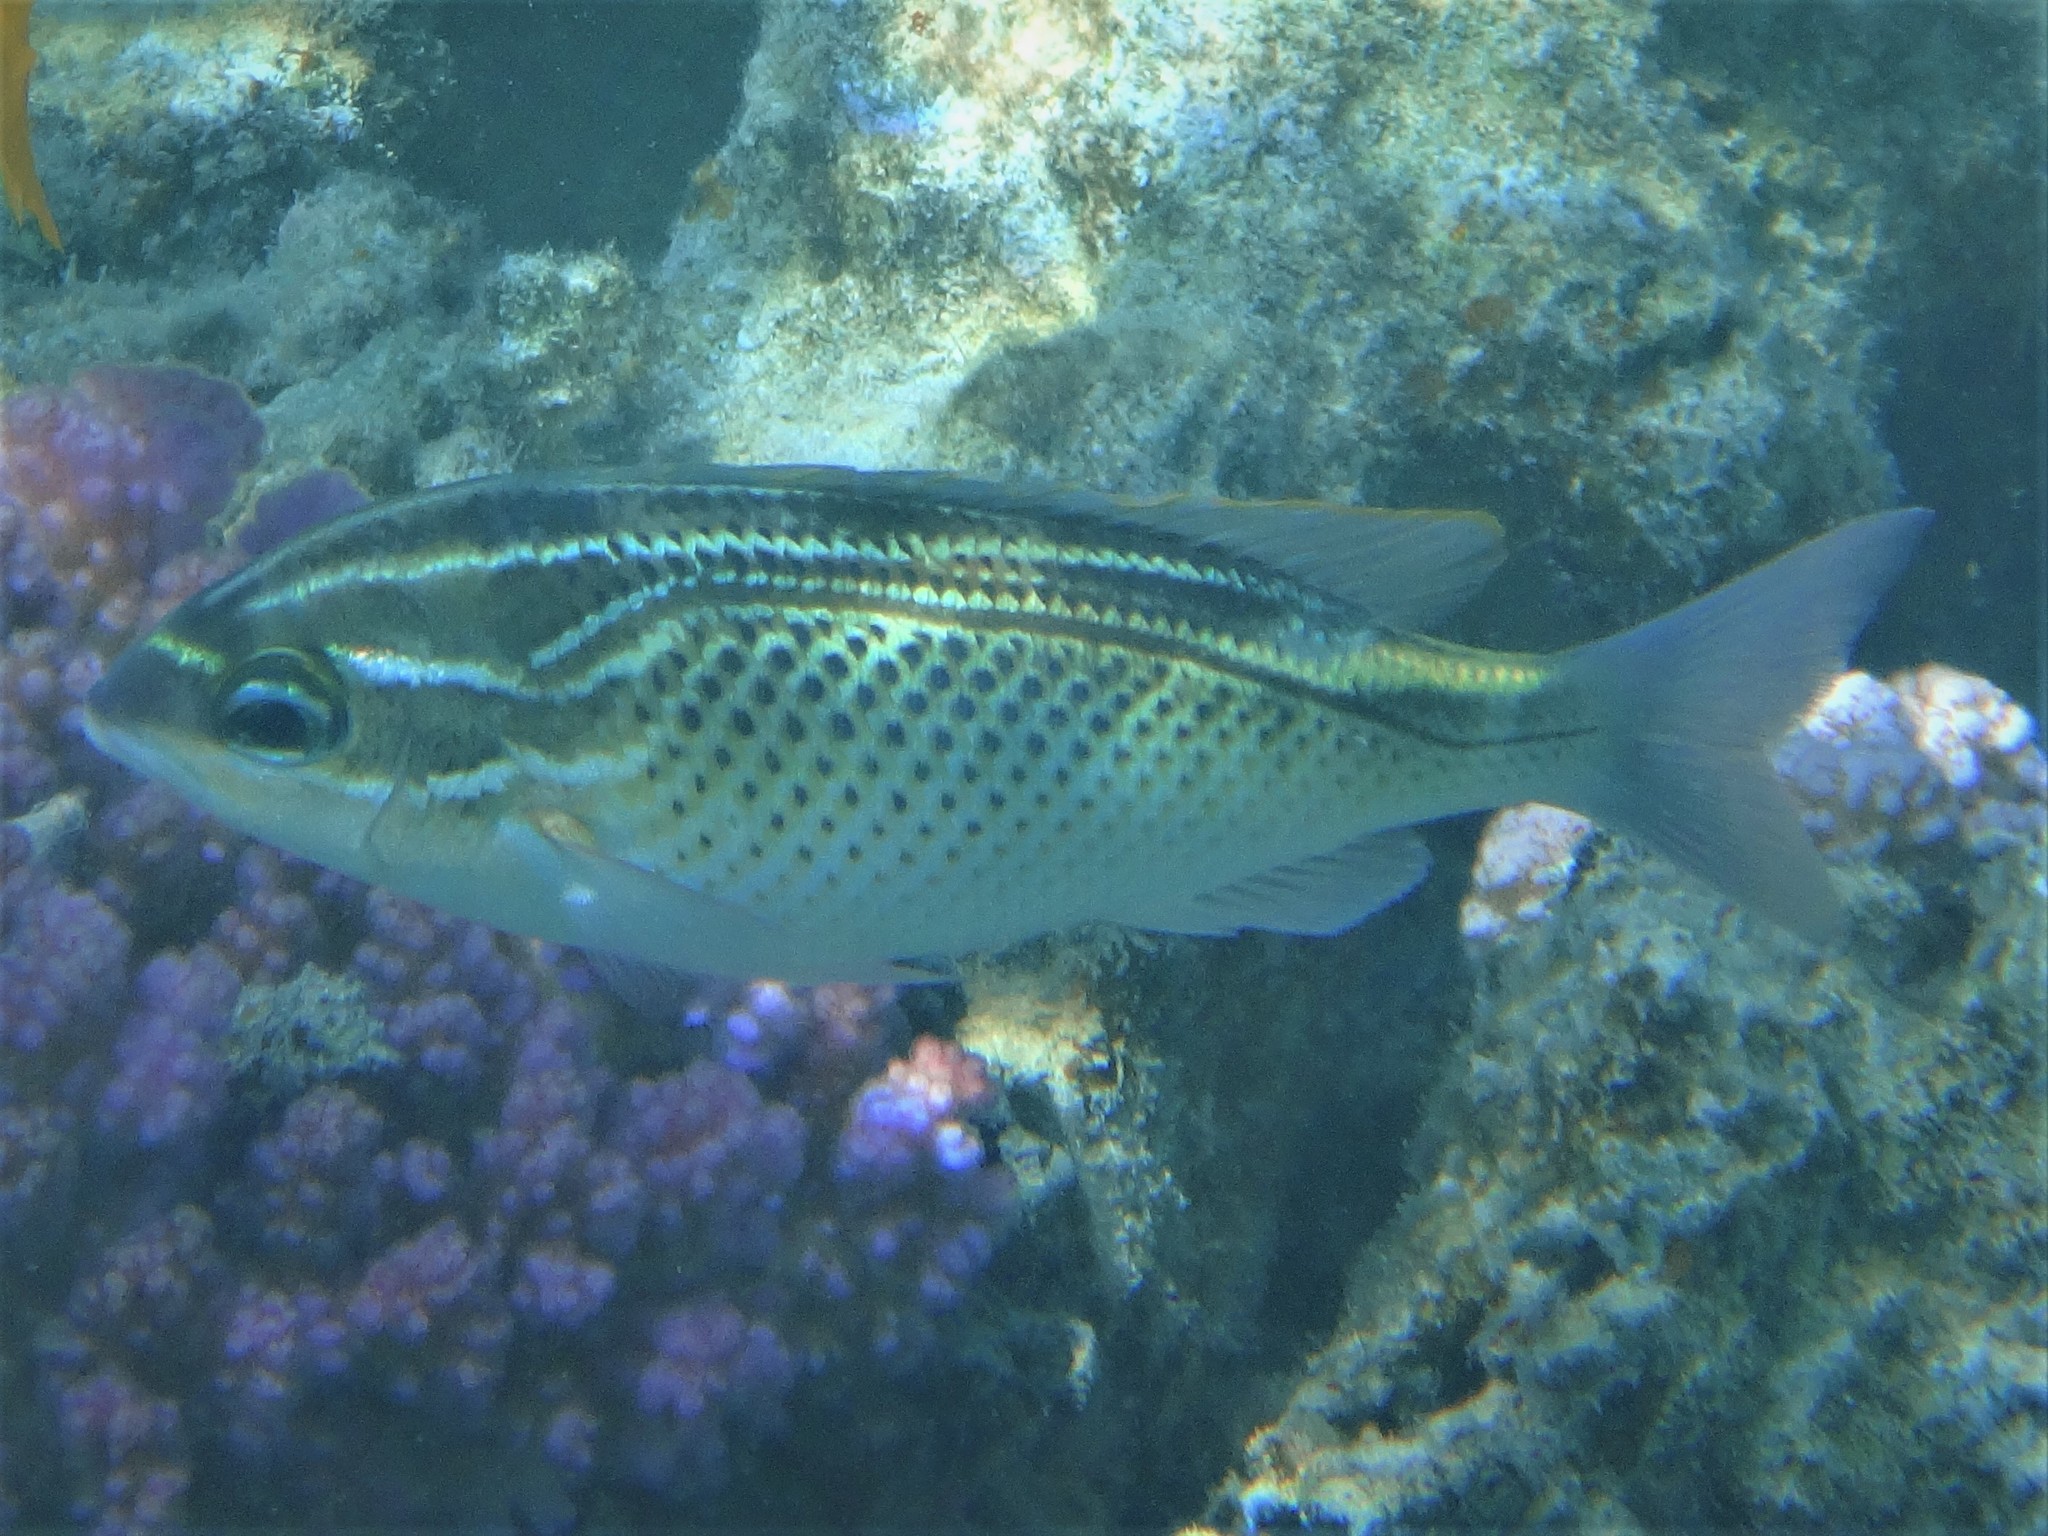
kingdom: Animalia
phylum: Chordata
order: Perciformes
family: Nemipteridae
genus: Scolopsis
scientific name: Scolopsis ghanam
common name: Arabian monocle bream
